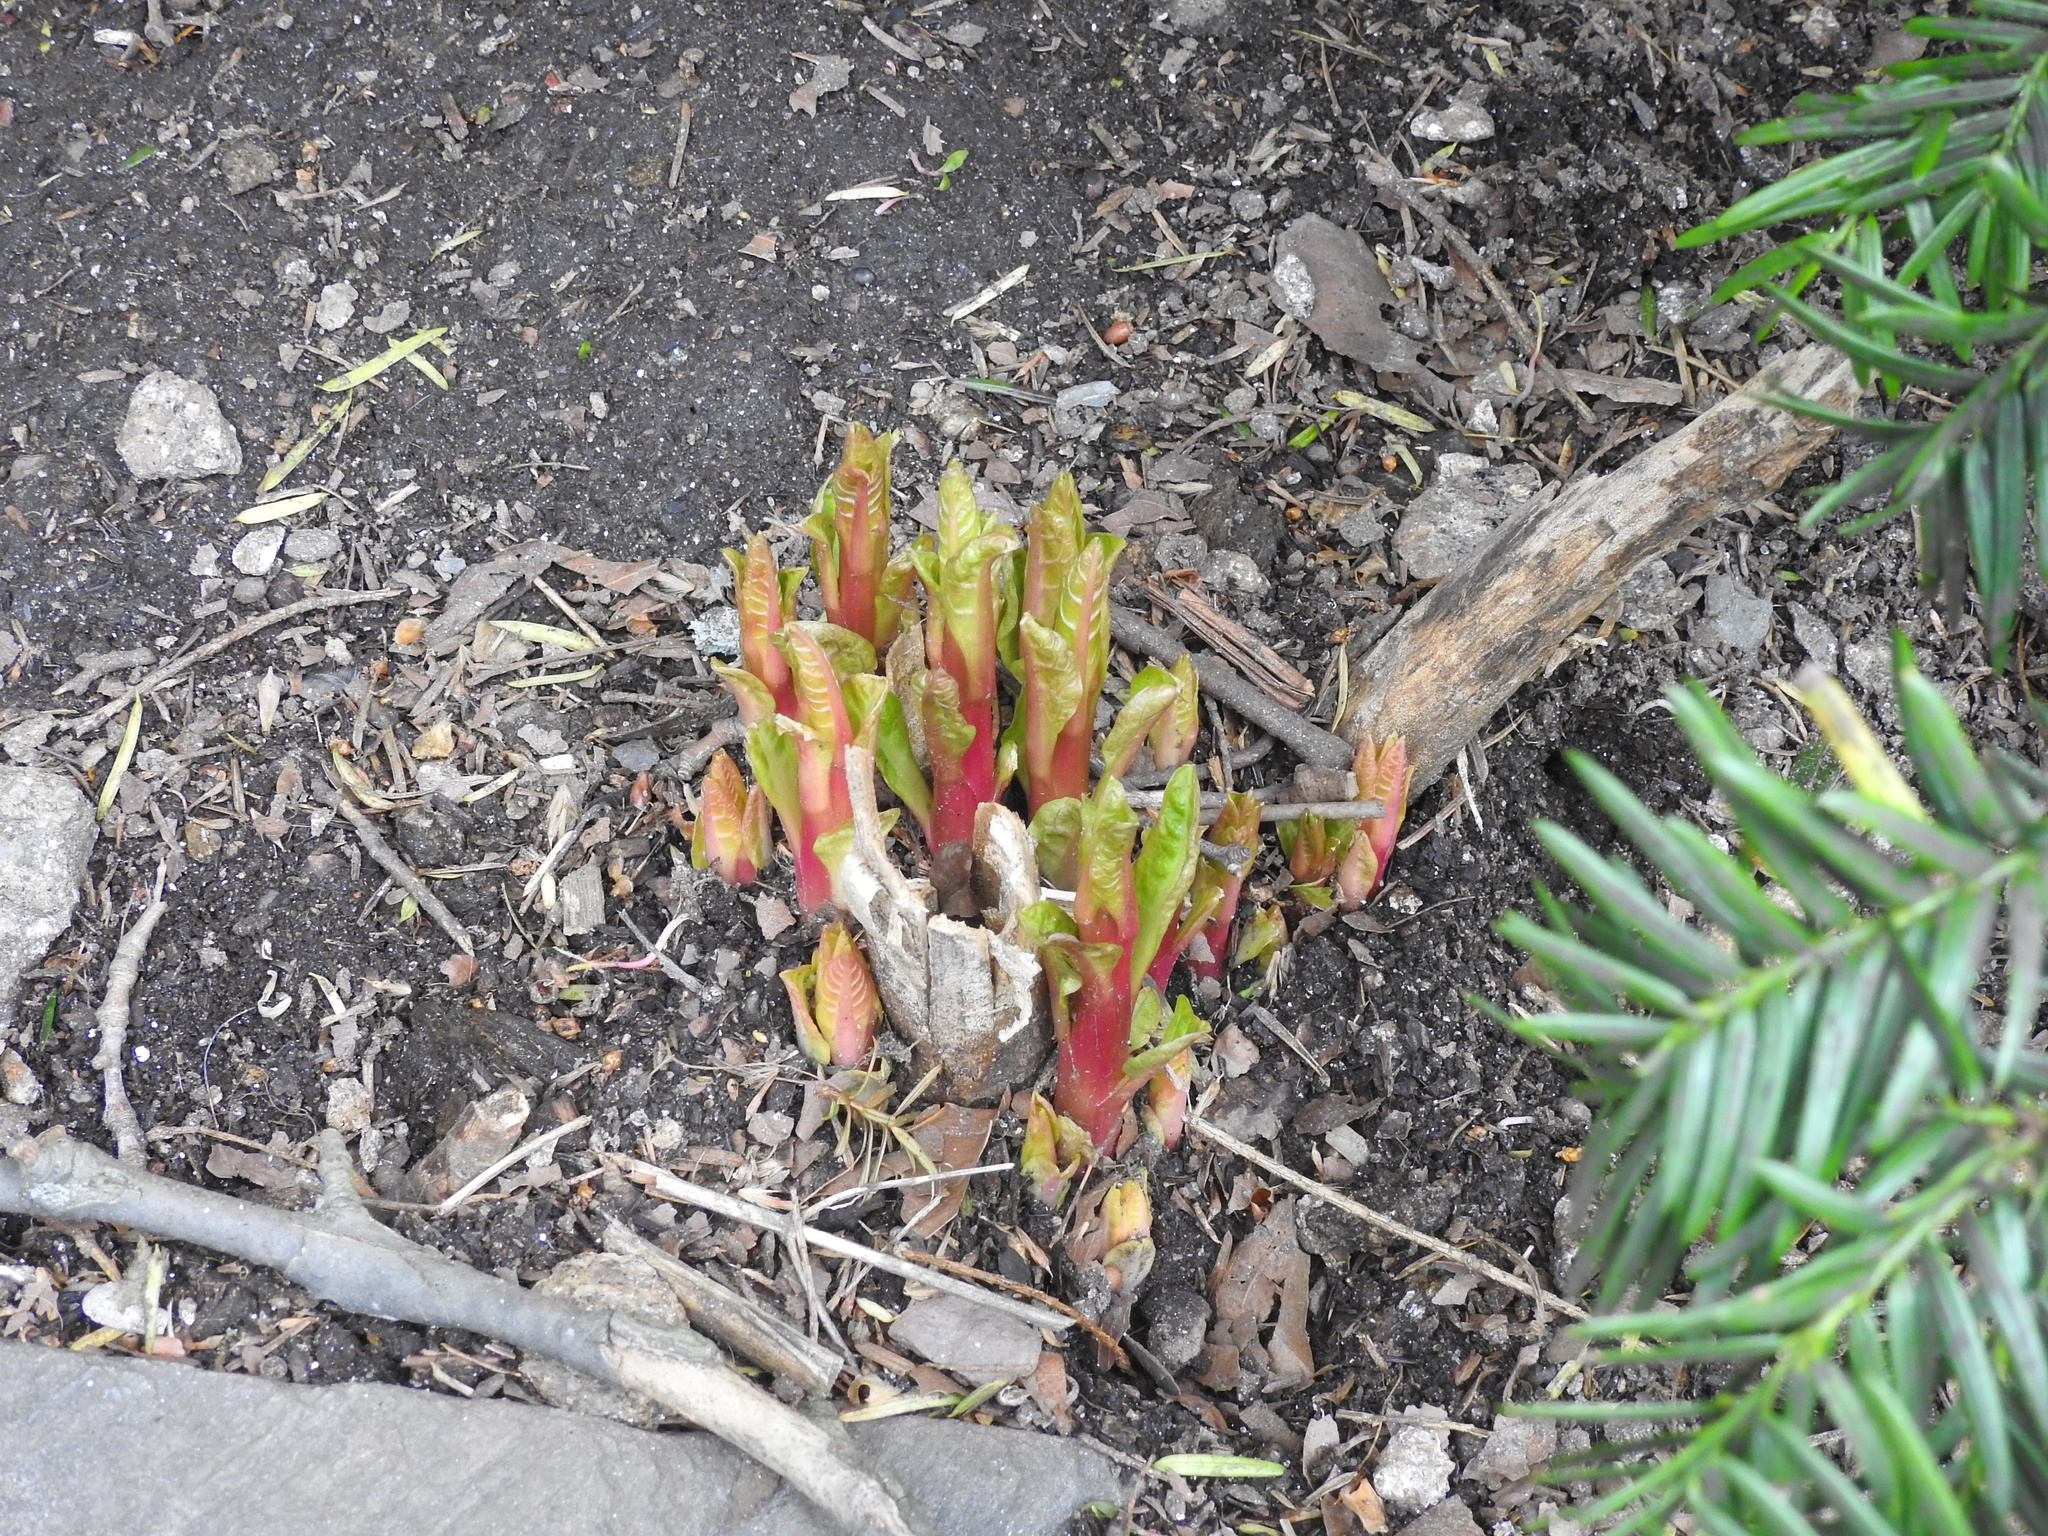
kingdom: Plantae
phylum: Tracheophyta
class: Magnoliopsida
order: Caryophyllales
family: Phytolaccaceae
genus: Phytolacca
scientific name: Phytolacca americana
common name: American pokeweed
